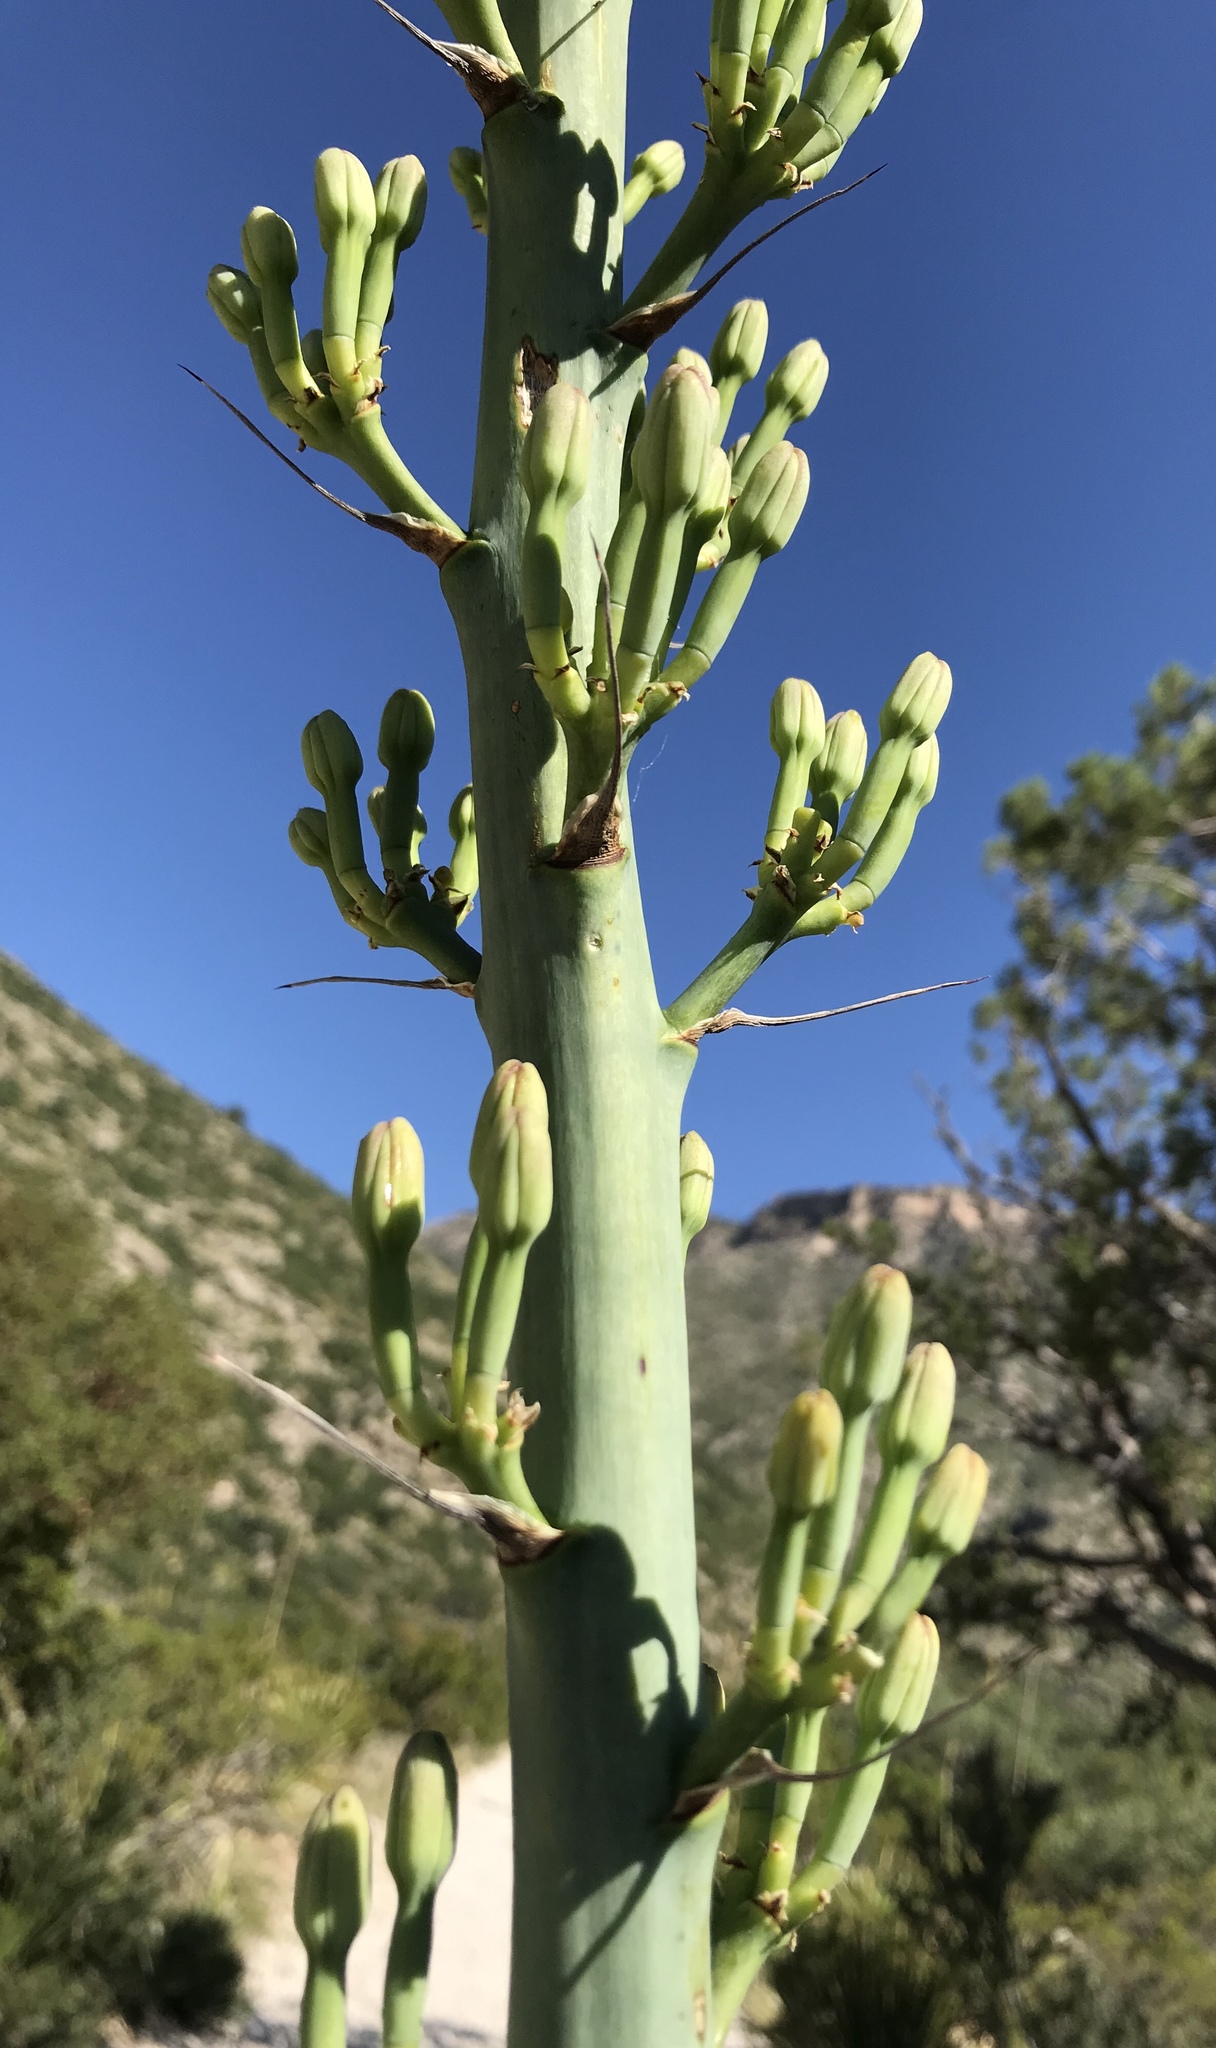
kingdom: Plantae
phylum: Tracheophyta
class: Liliopsida
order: Asparagales
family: Asparagaceae
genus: Agave
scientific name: Agave lechuguilla
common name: Lecheguilla agave
